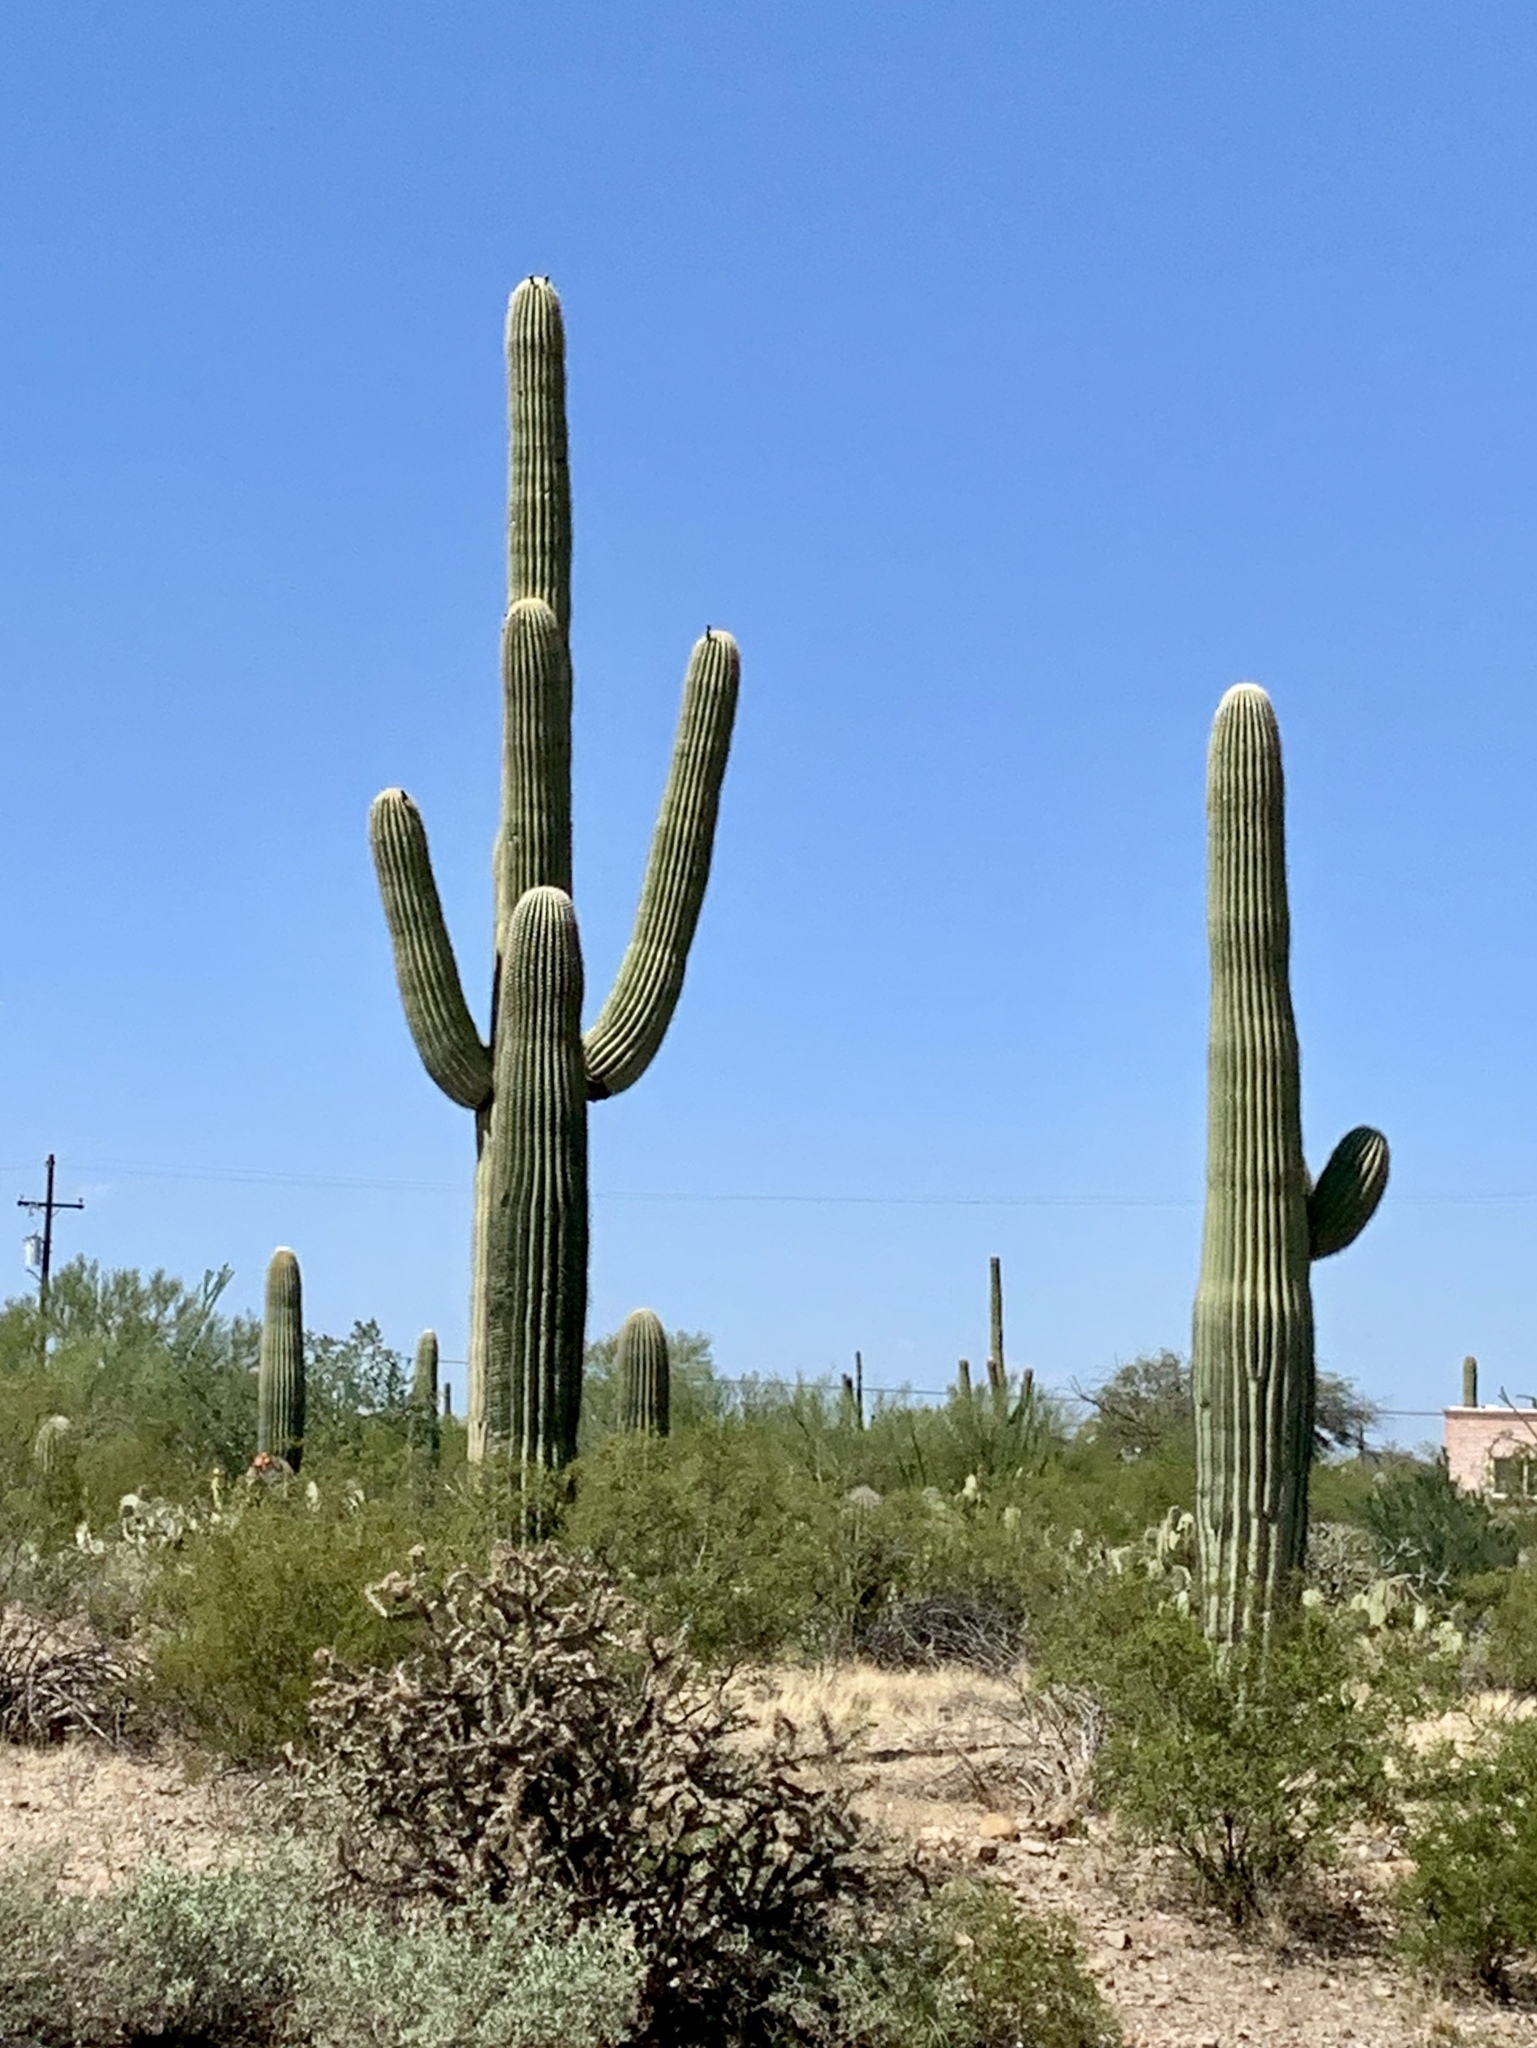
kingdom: Plantae
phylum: Tracheophyta
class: Magnoliopsida
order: Caryophyllales
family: Cactaceae
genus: Carnegiea
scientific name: Carnegiea gigantea
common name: Saguaro
